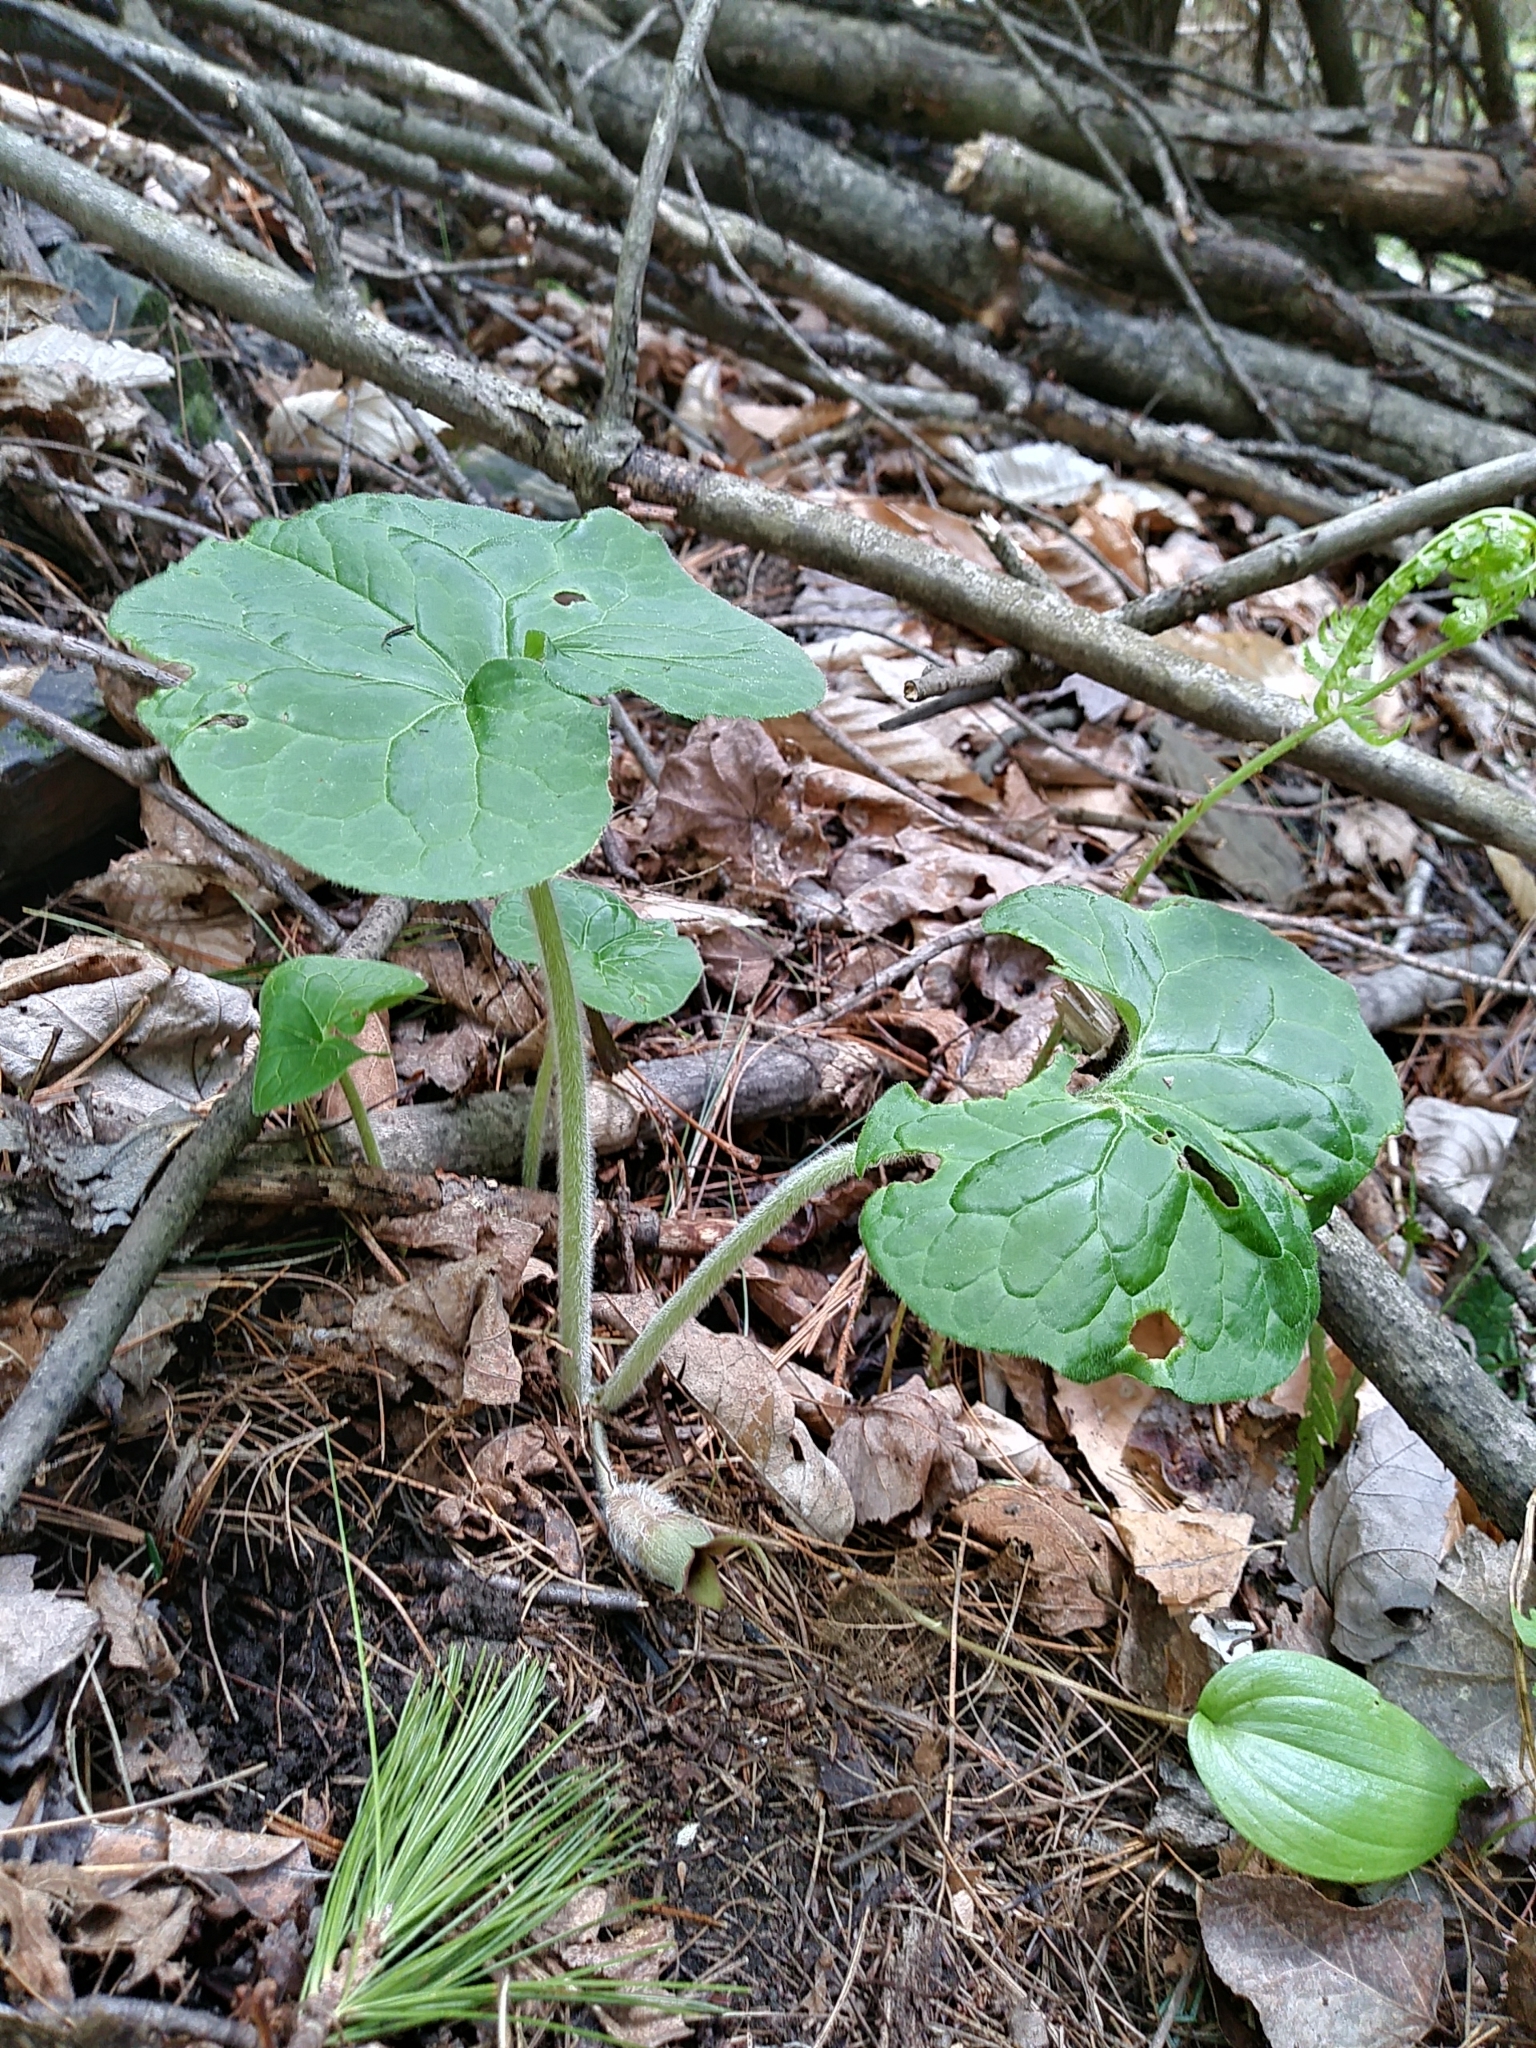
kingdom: Plantae
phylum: Tracheophyta
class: Magnoliopsida
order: Piperales
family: Aristolochiaceae
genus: Asarum
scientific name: Asarum canadense
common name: Wild ginger
